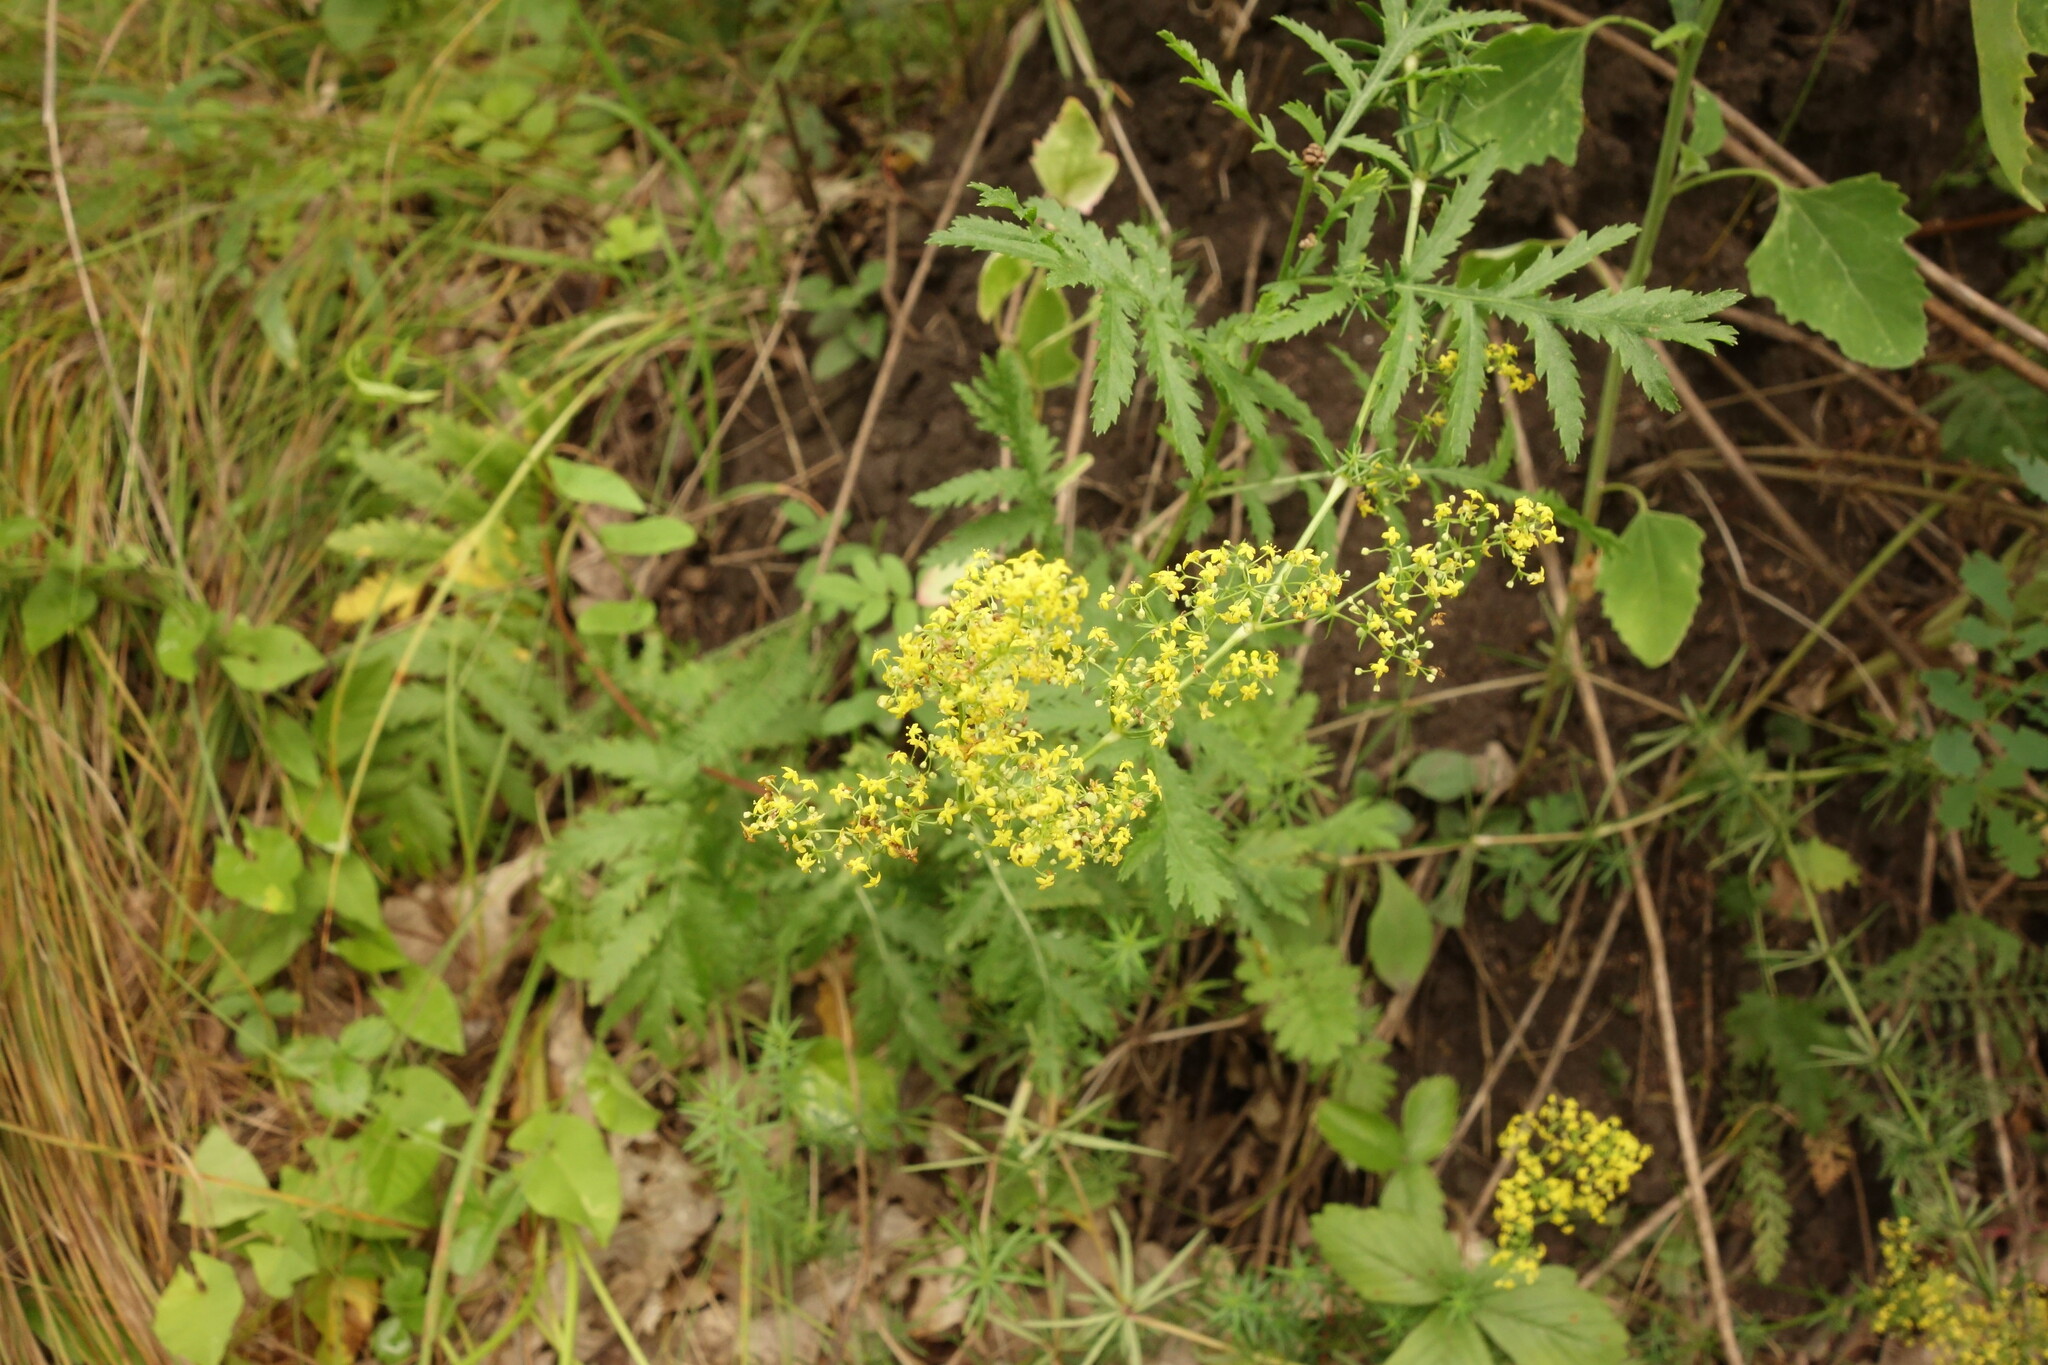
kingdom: Plantae
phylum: Tracheophyta
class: Magnoliopsida
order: Gentianales
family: Rubiaceae
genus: Galium
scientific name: Galium verum
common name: Lady's bedstraw
